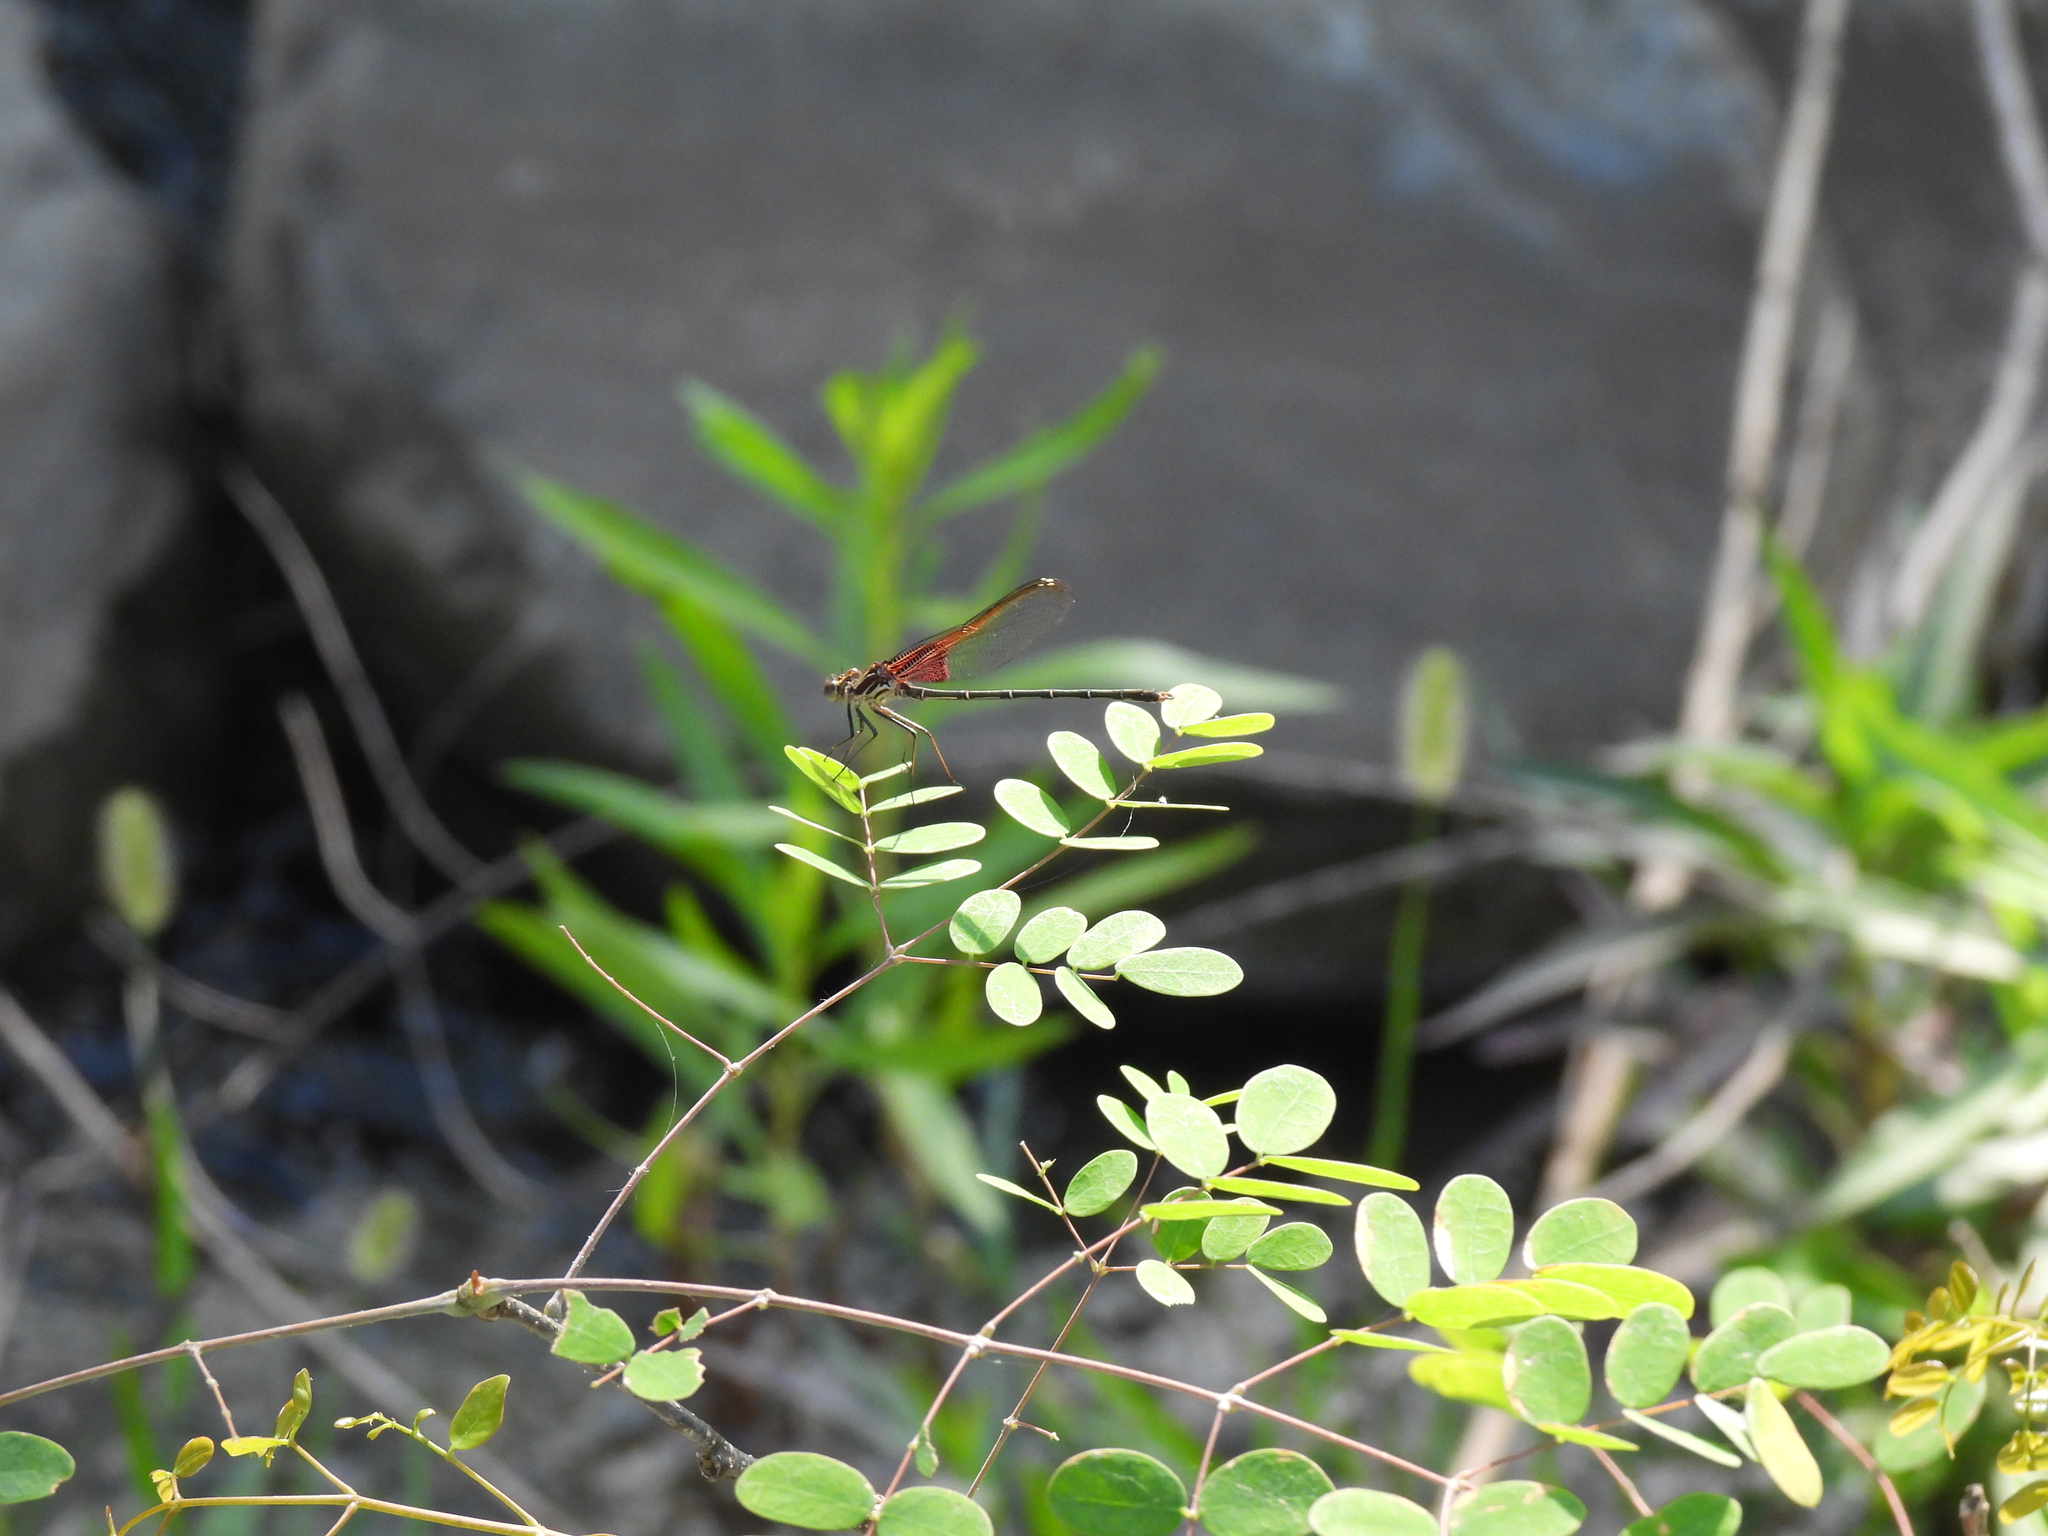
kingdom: Animalia
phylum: Arthropoda
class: Insecta
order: Odonata
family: Calopterygidae
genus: Hetaerina
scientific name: Hetaerina vulnerata
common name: Canyon rubyspot
